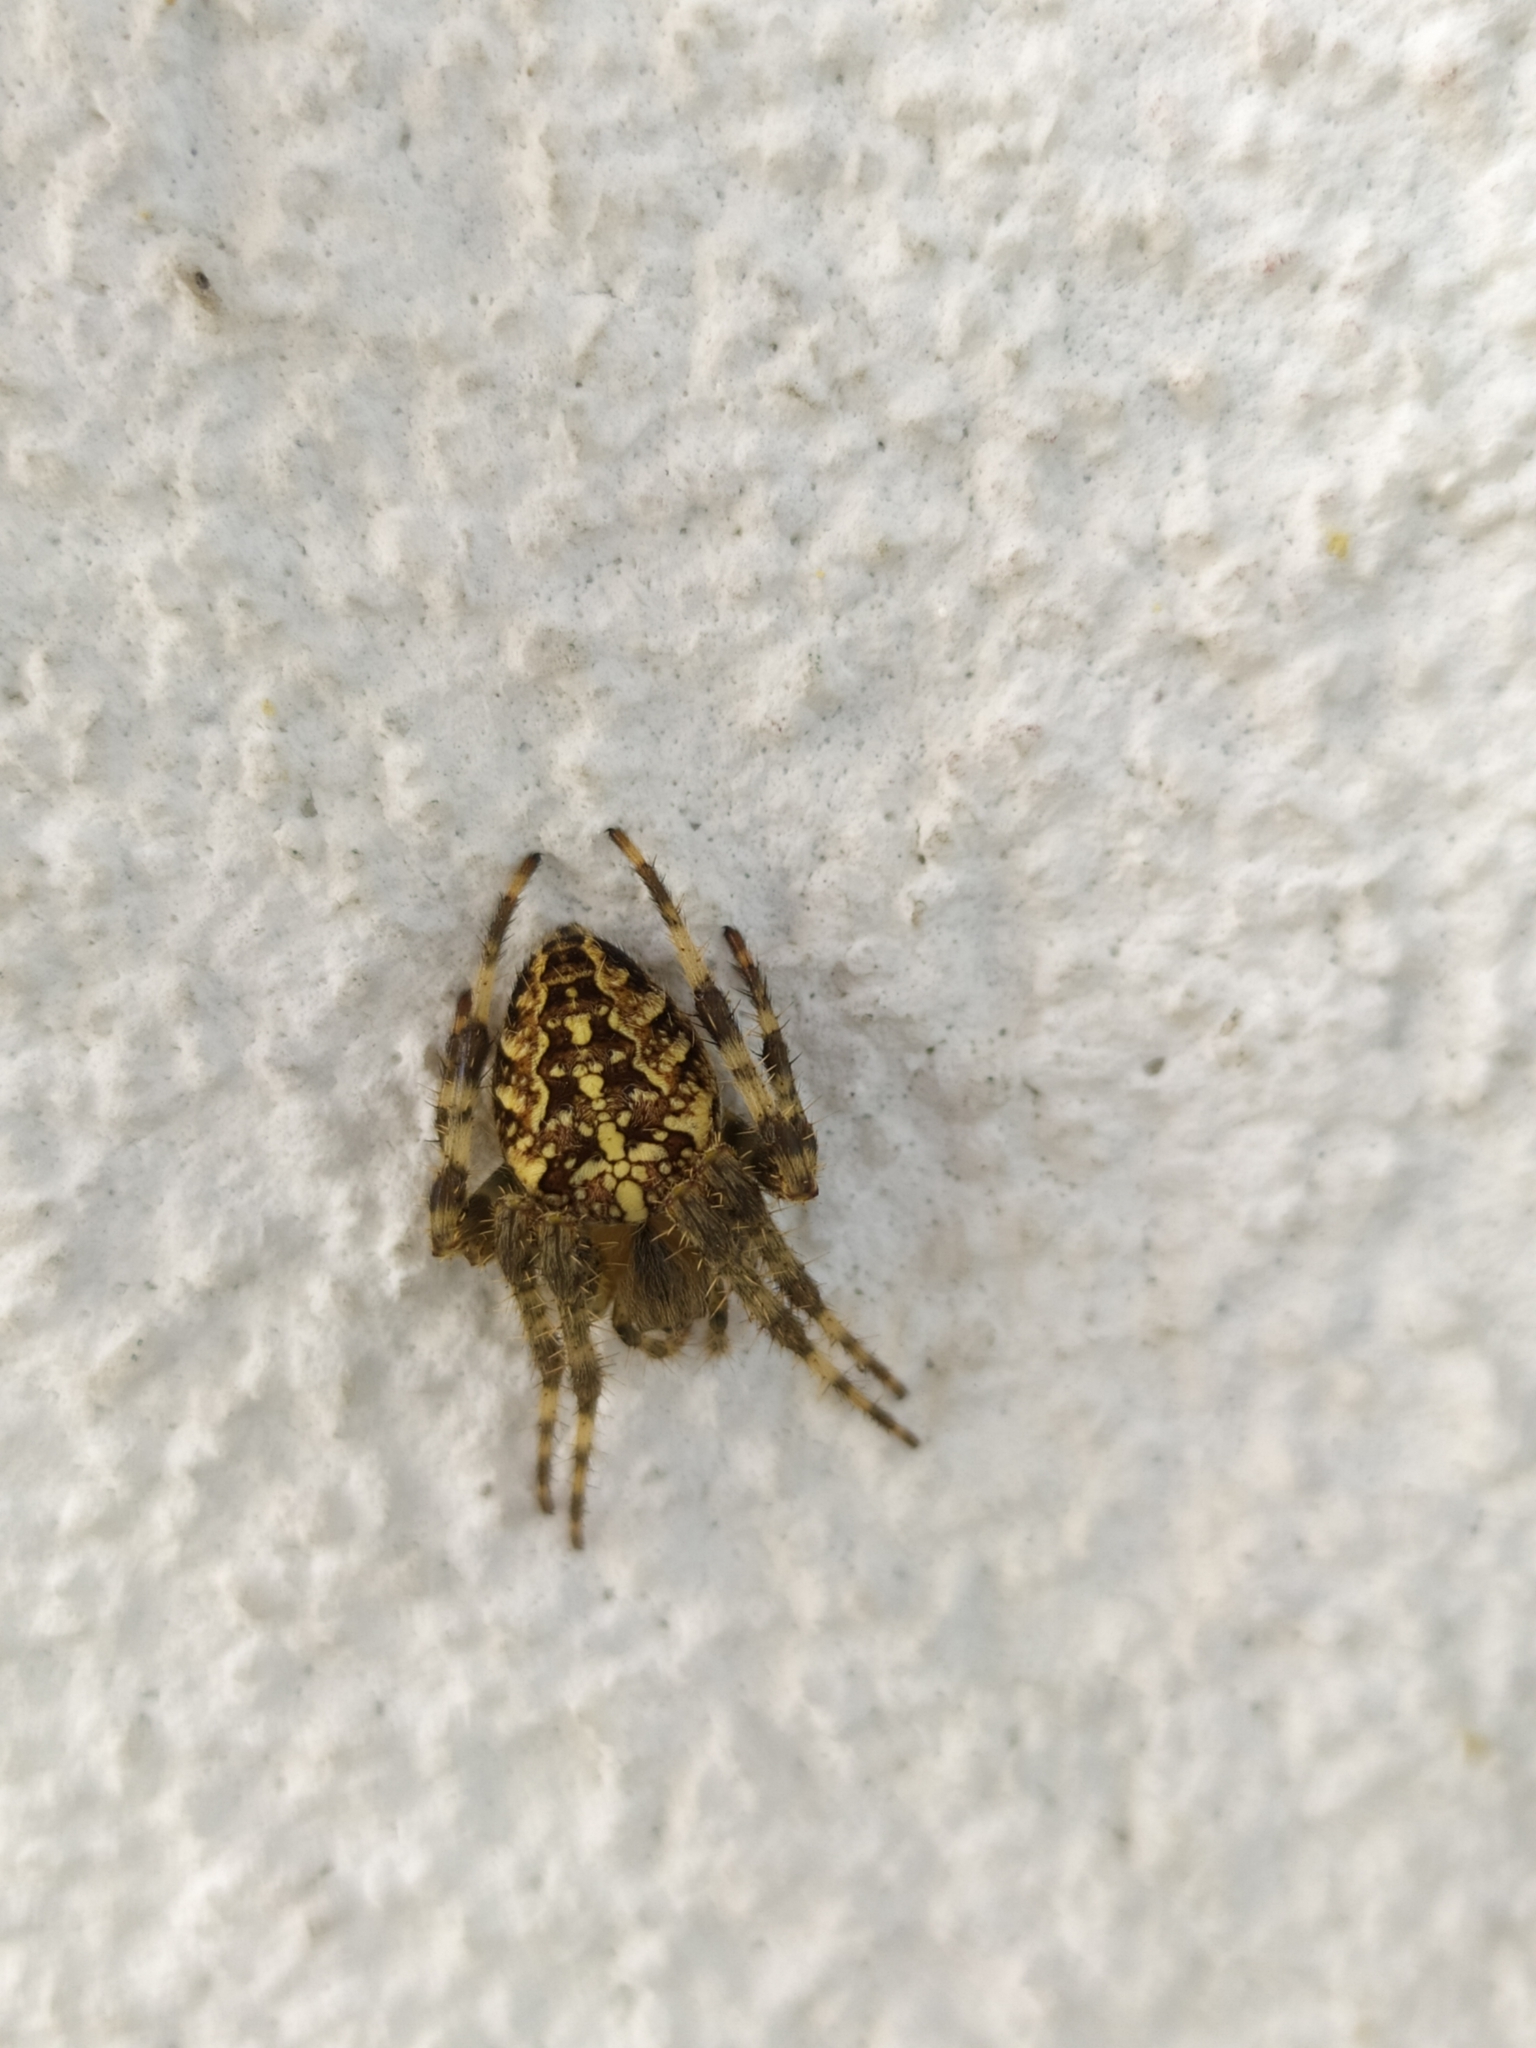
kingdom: Animalia
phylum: Arthropoda
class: Arachnida
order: Araneae
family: Araneidae
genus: Araneus
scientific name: Araneus diadematus
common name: Cross orbweaver
